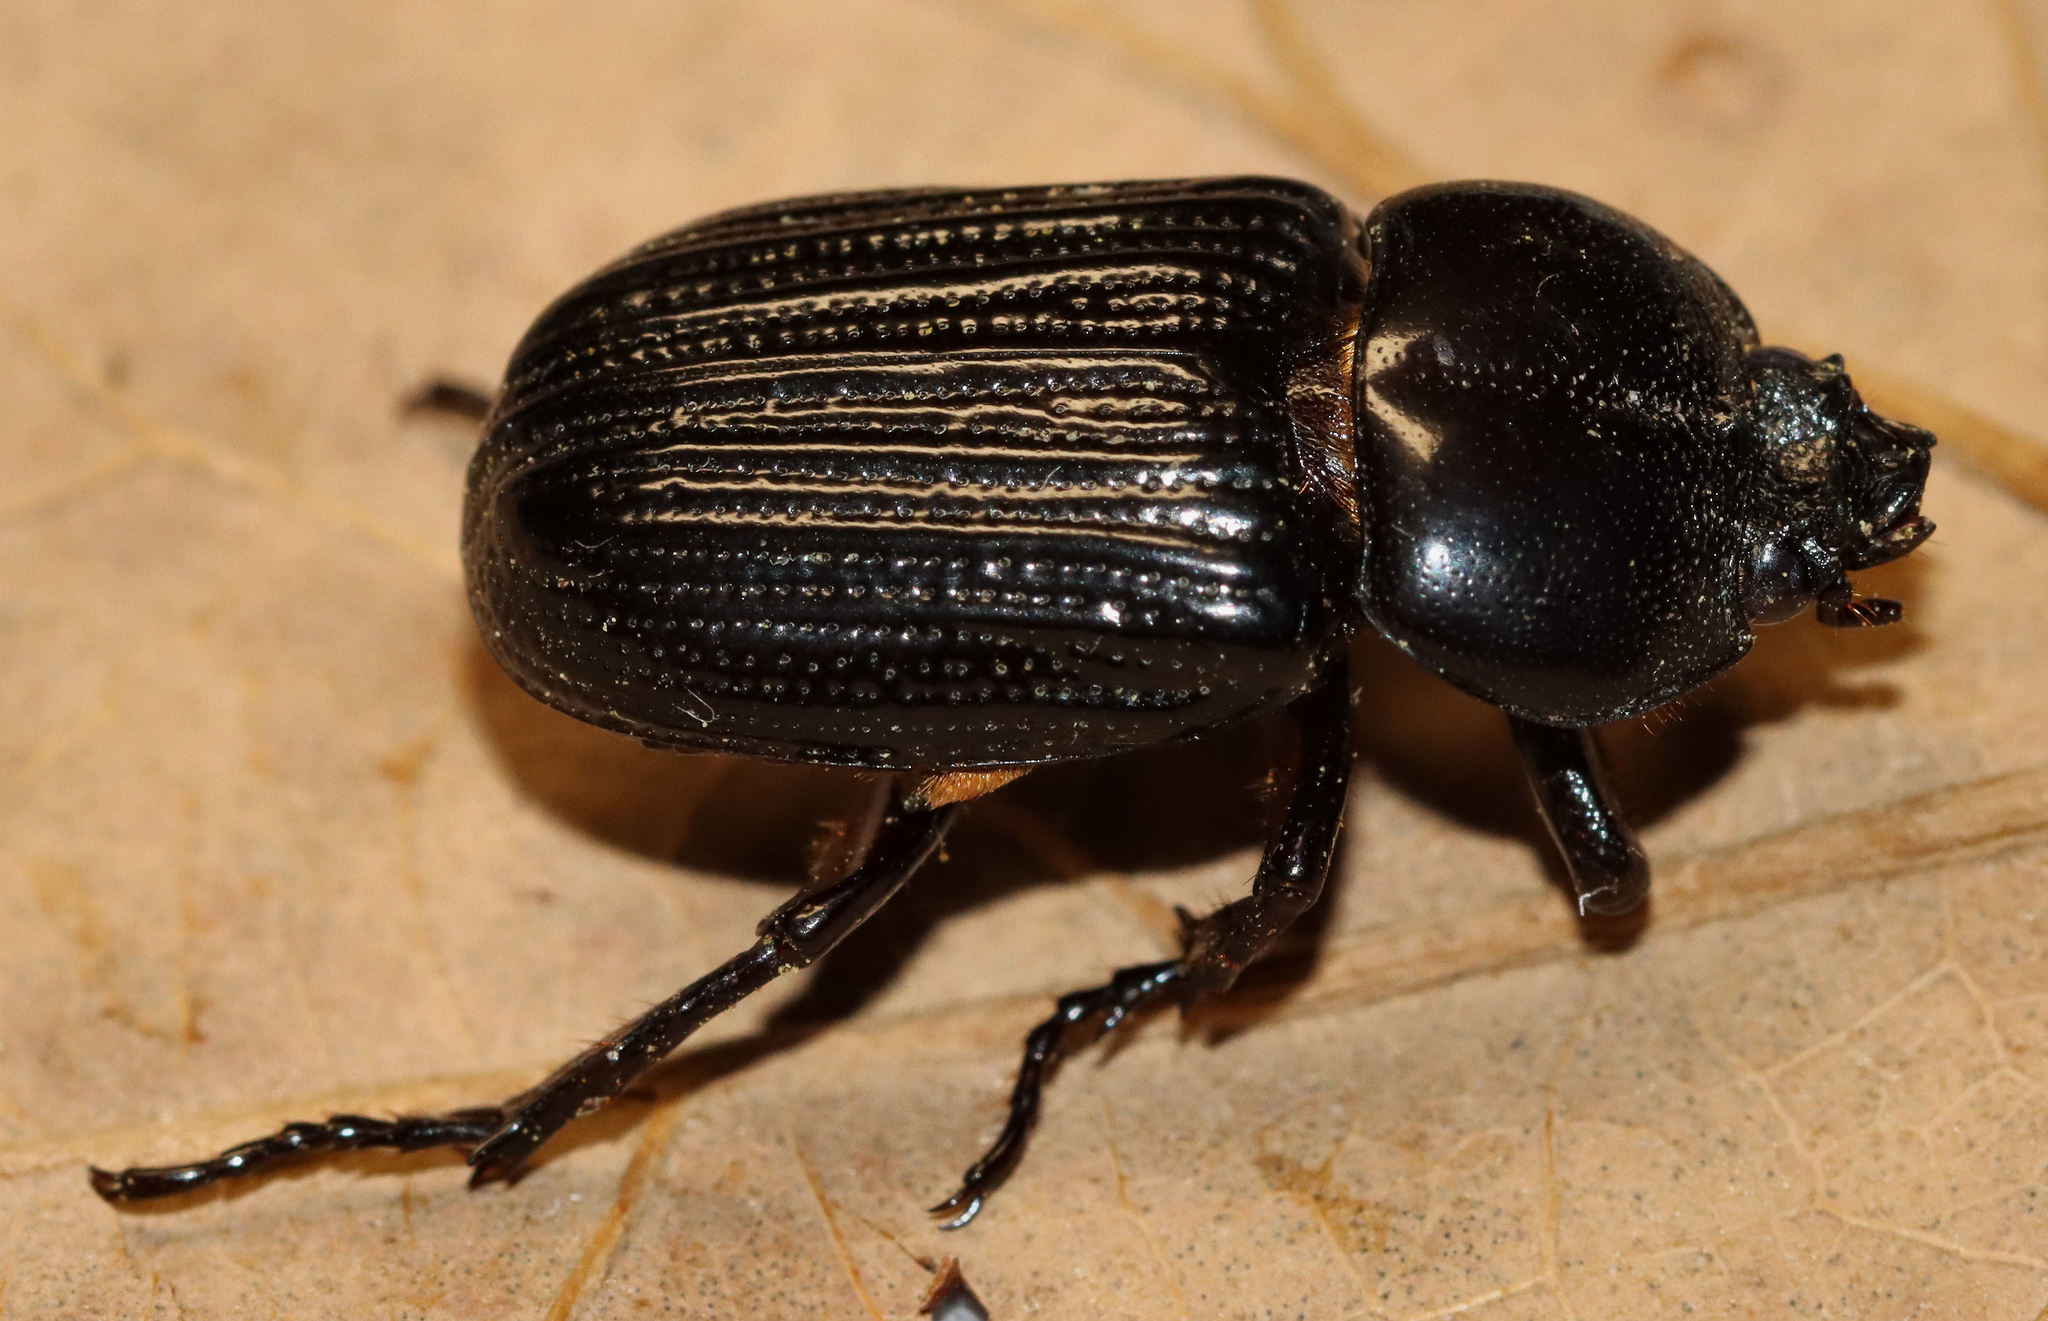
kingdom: Animalia
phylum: Arthropoda
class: Insecta
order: Coleoptera
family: Scarabaeidae
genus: Phileurus
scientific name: Phileurus valgus
